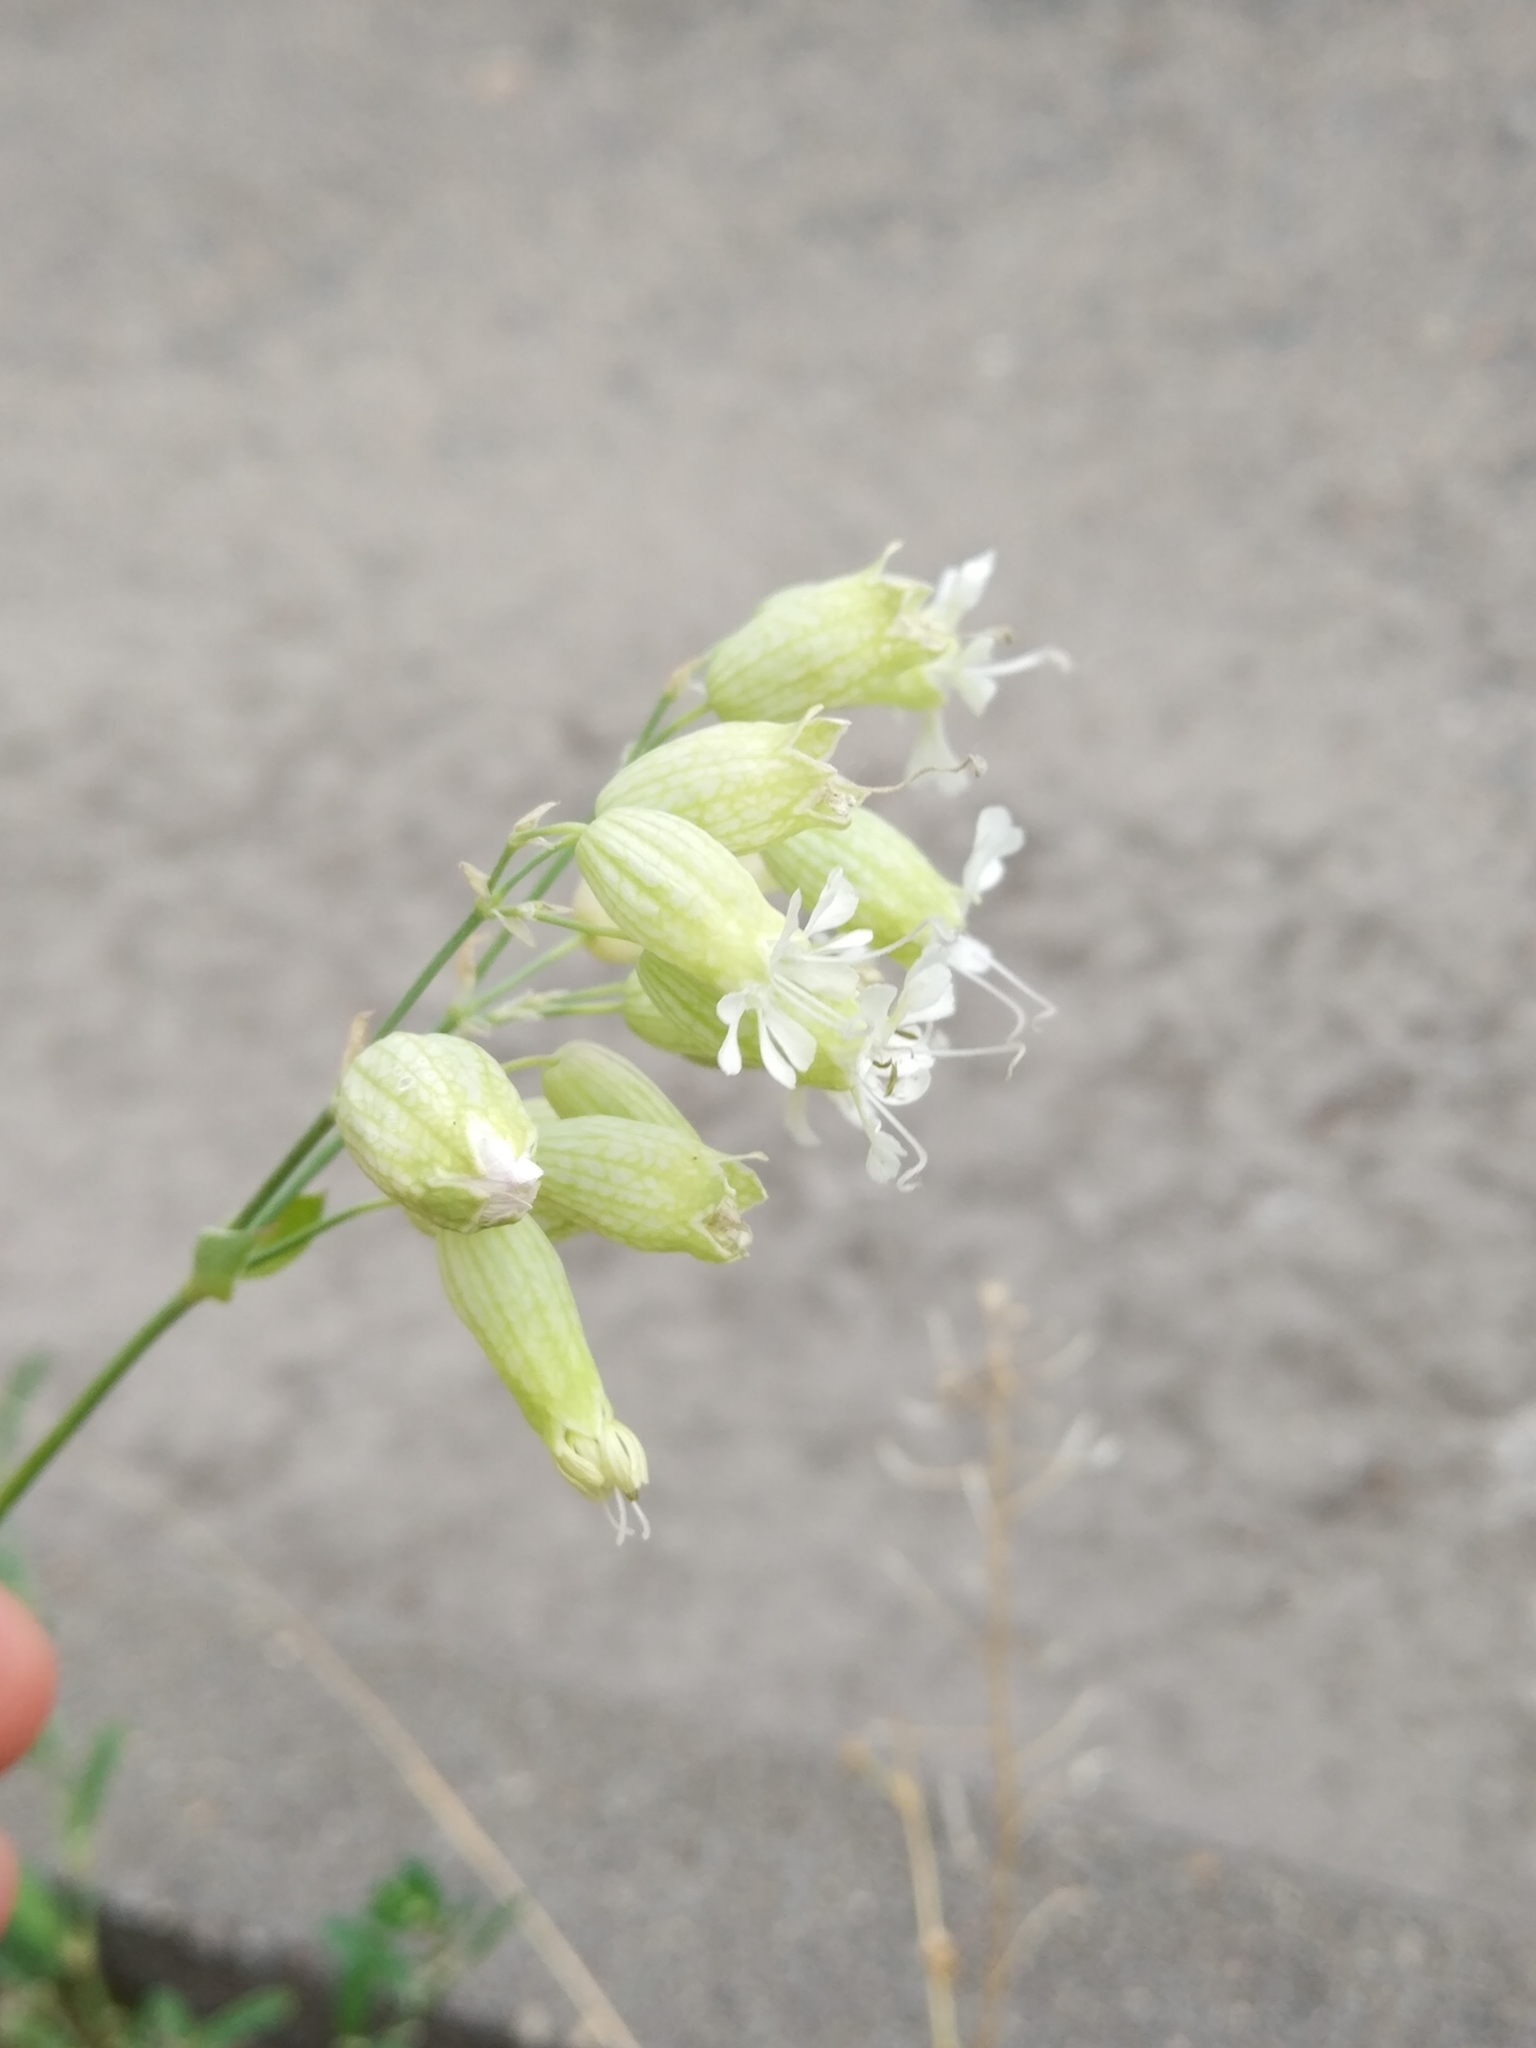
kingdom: Plantae
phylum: Tracheophyta
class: Magnoliopsida
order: Caryophyllales
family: Caryophyllaceae
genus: Silene
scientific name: Silene vulgaris
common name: Bladder campion
